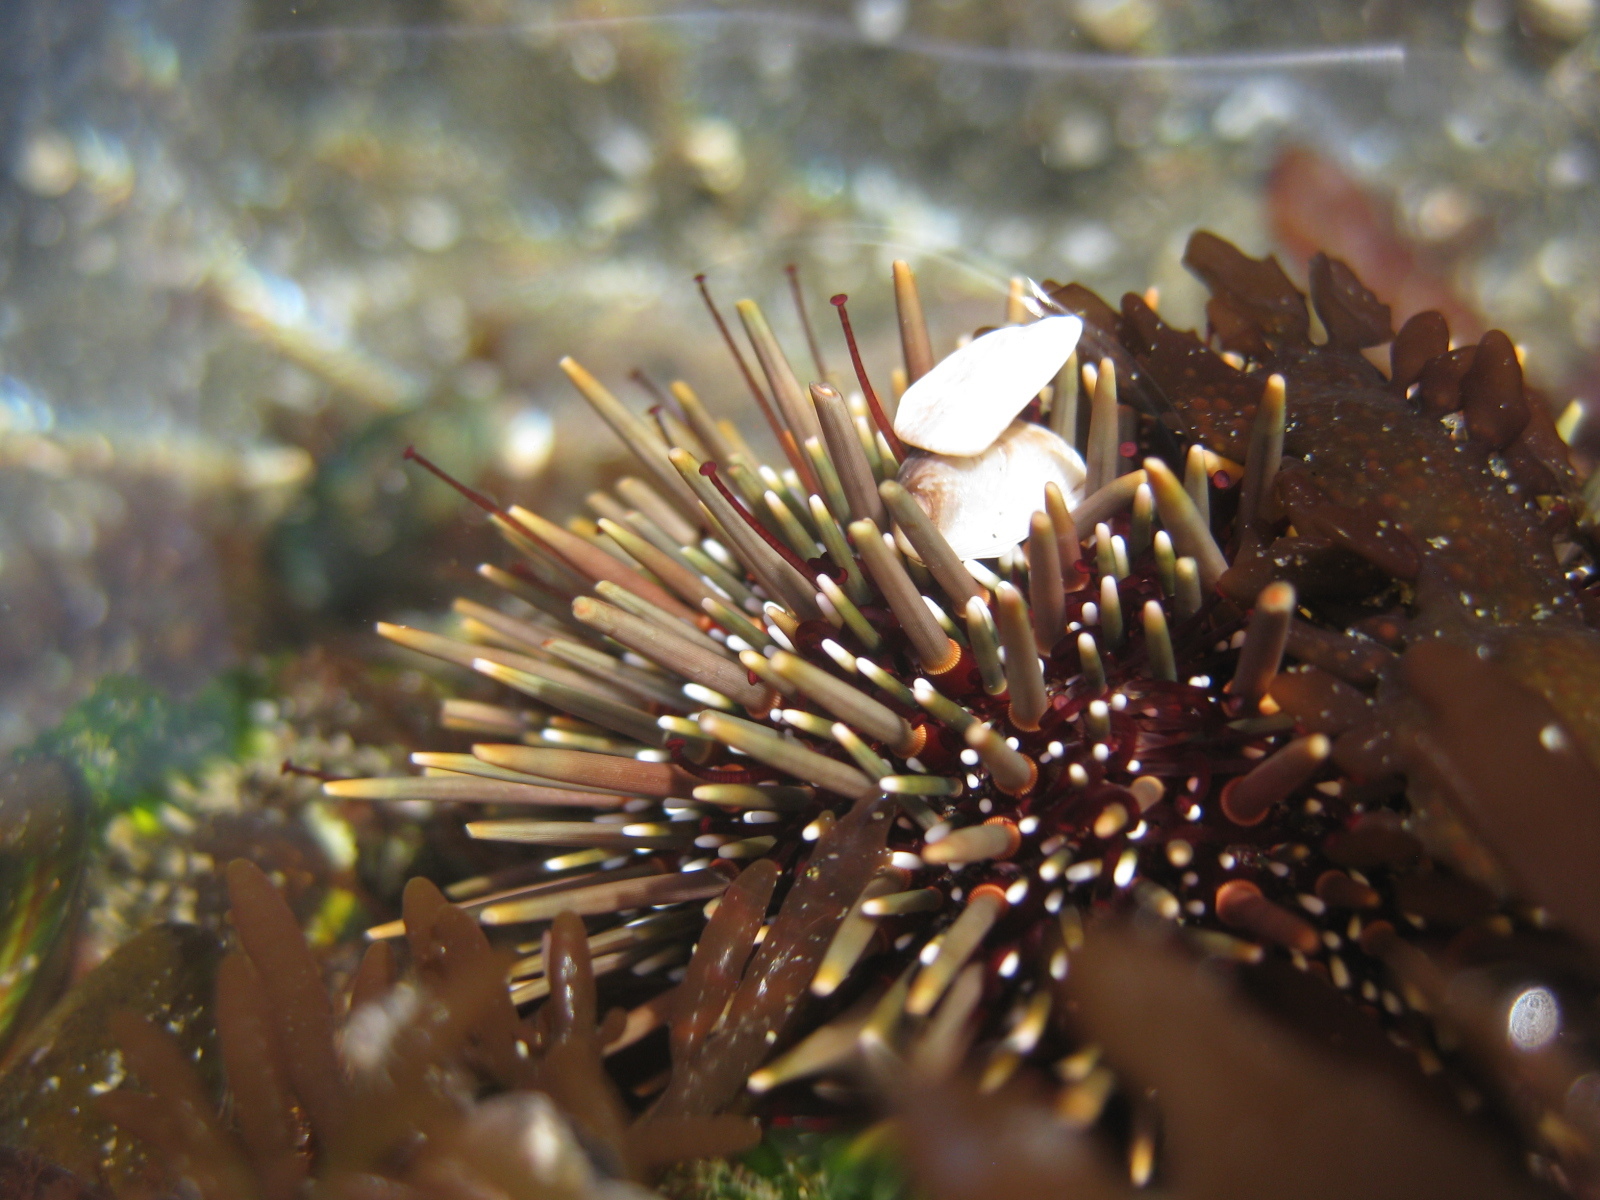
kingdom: Animalia
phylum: Echinodermata
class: Echinoidea
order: Camarodonta
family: Echinometridae
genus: Evechinus
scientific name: Evechinus chloroticus
